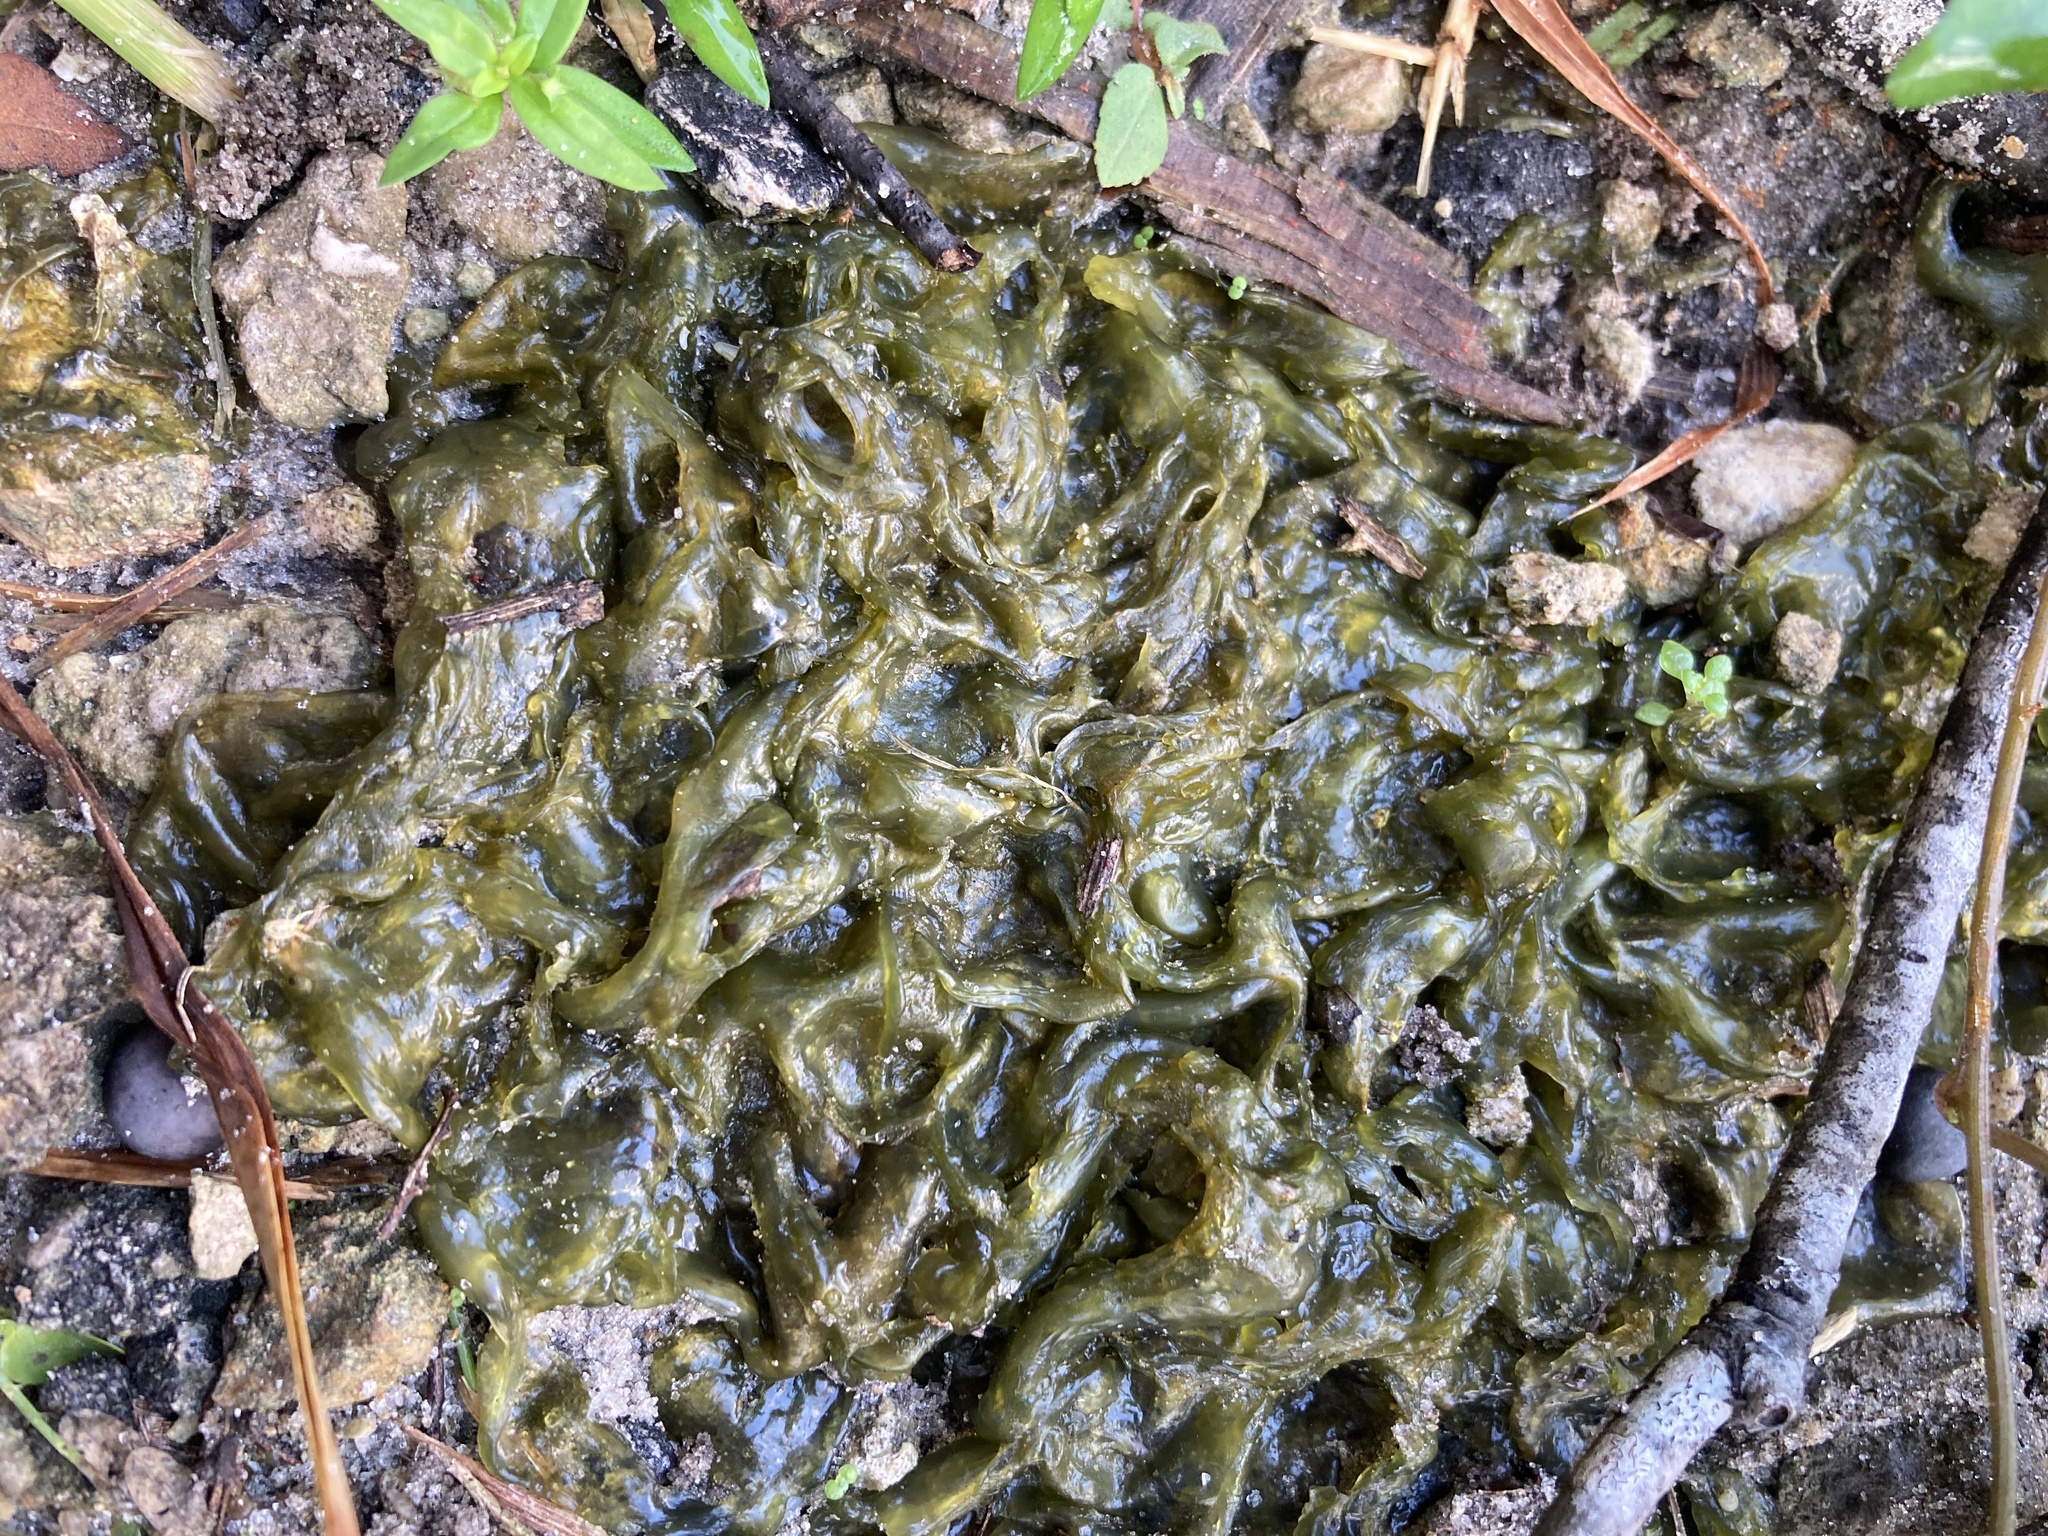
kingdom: Bacteria
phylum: Cyanobacteria
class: Cyanobacteriia
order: Cyanobacteriales
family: Nostocaceae
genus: Nostoc
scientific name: Nostoc commune
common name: Star jelly
